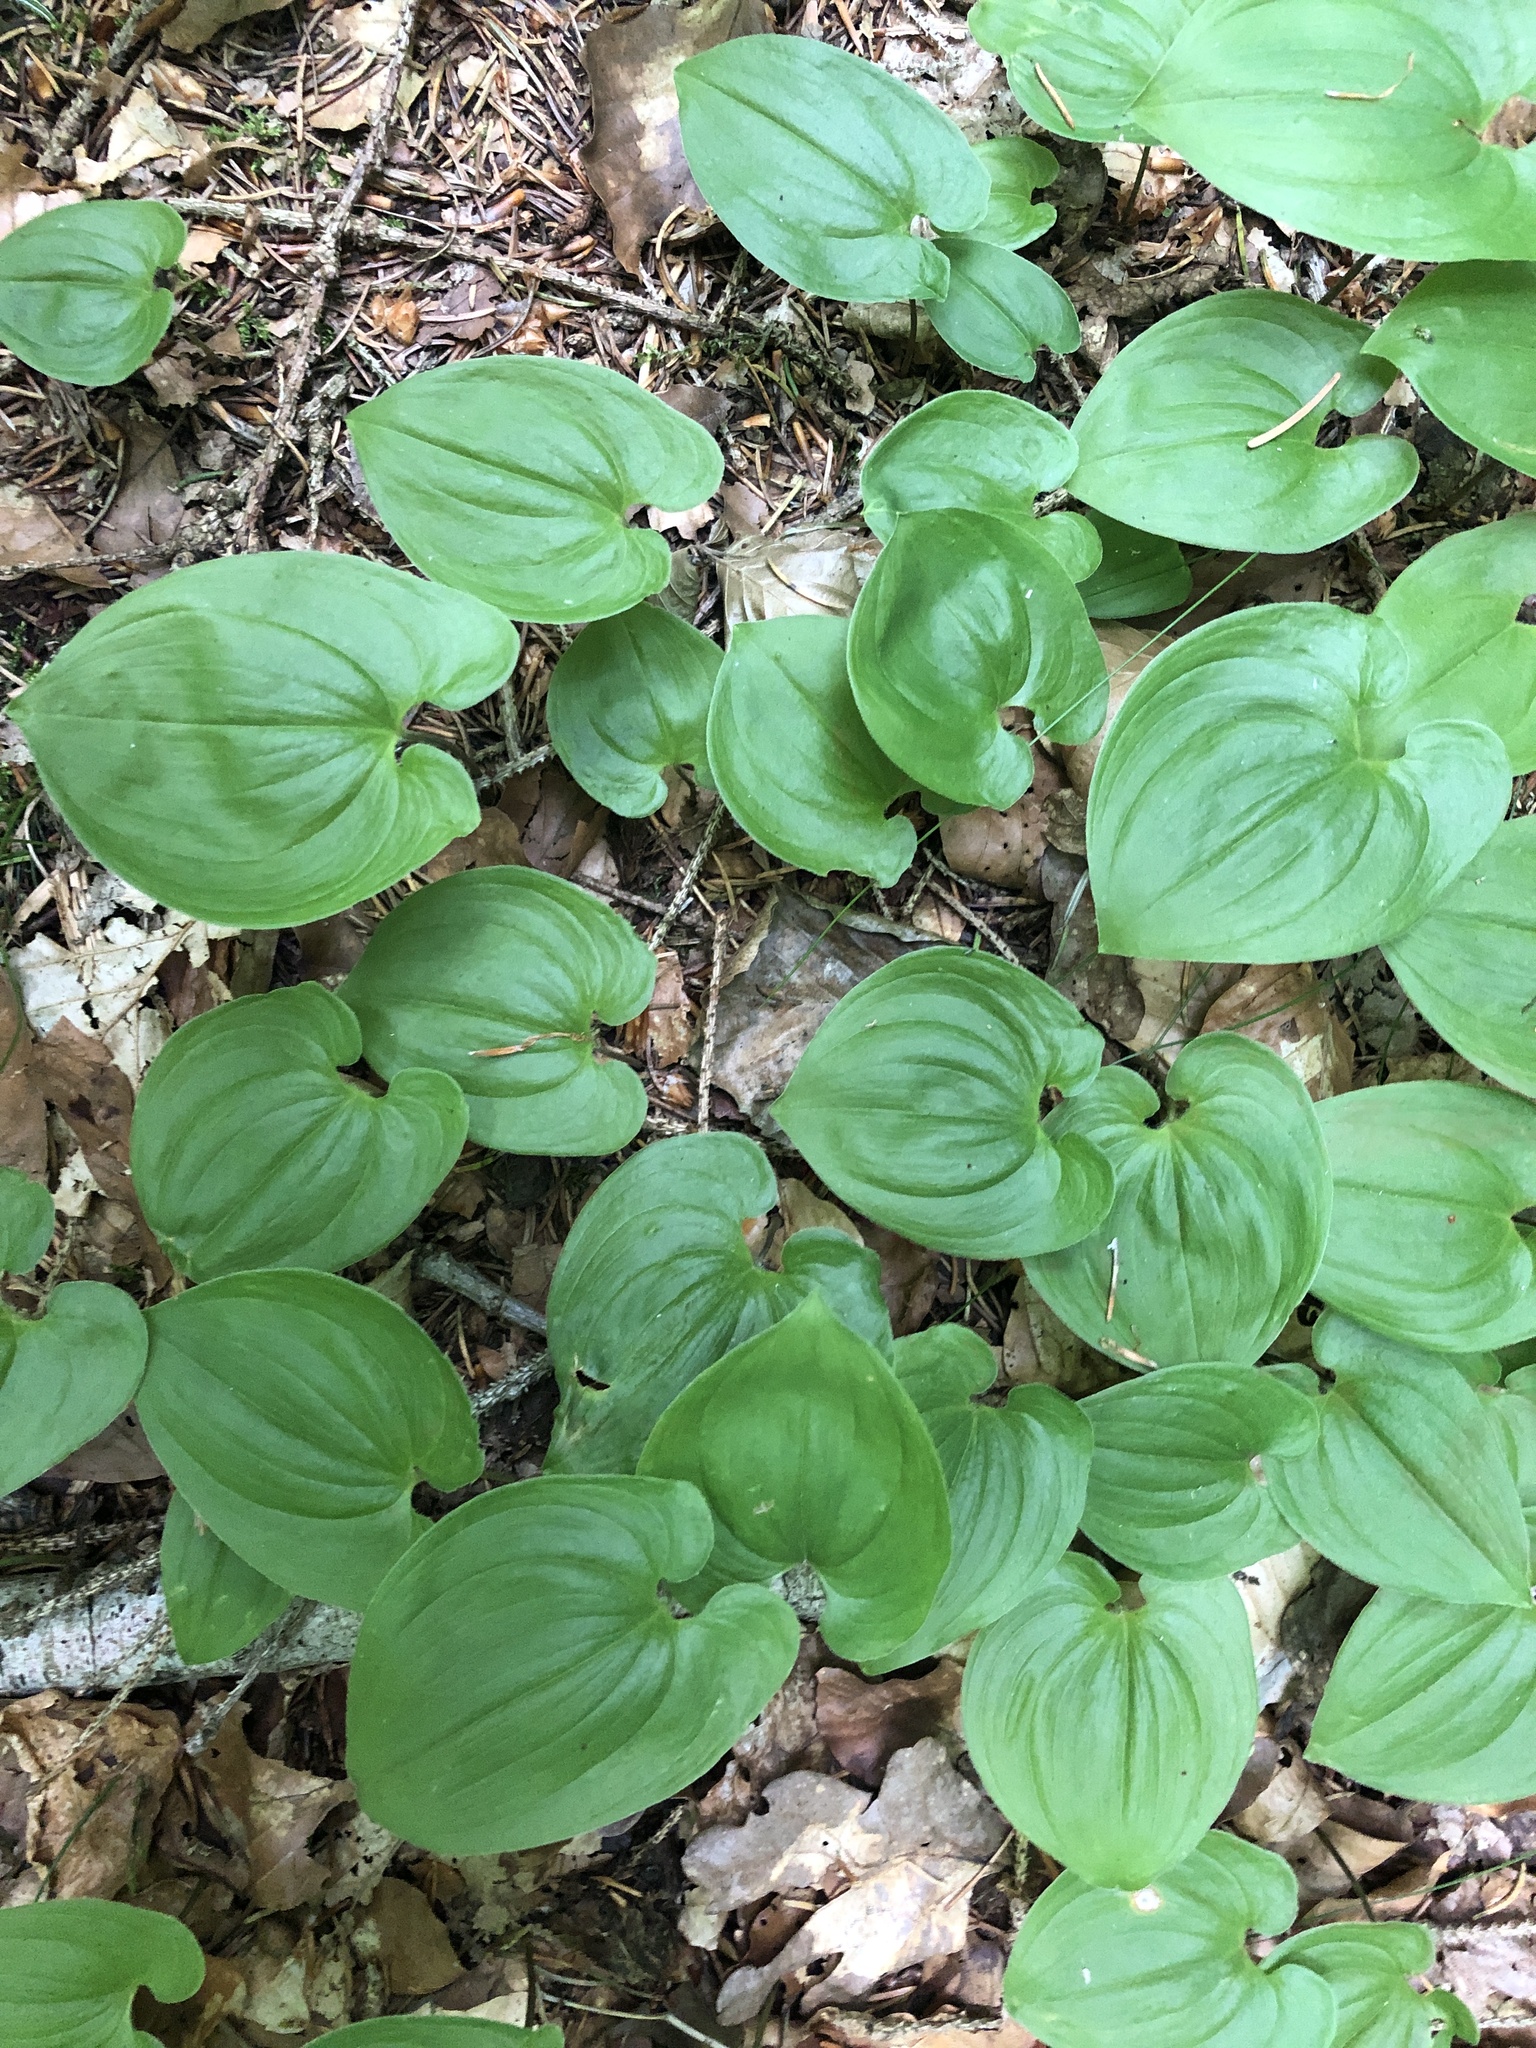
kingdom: Plantae
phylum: Tracheophyta
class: Liliopsida
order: Asparagales
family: Asparagaceae
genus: Maianthemum
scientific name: Maianthemum bifolium
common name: May lily
